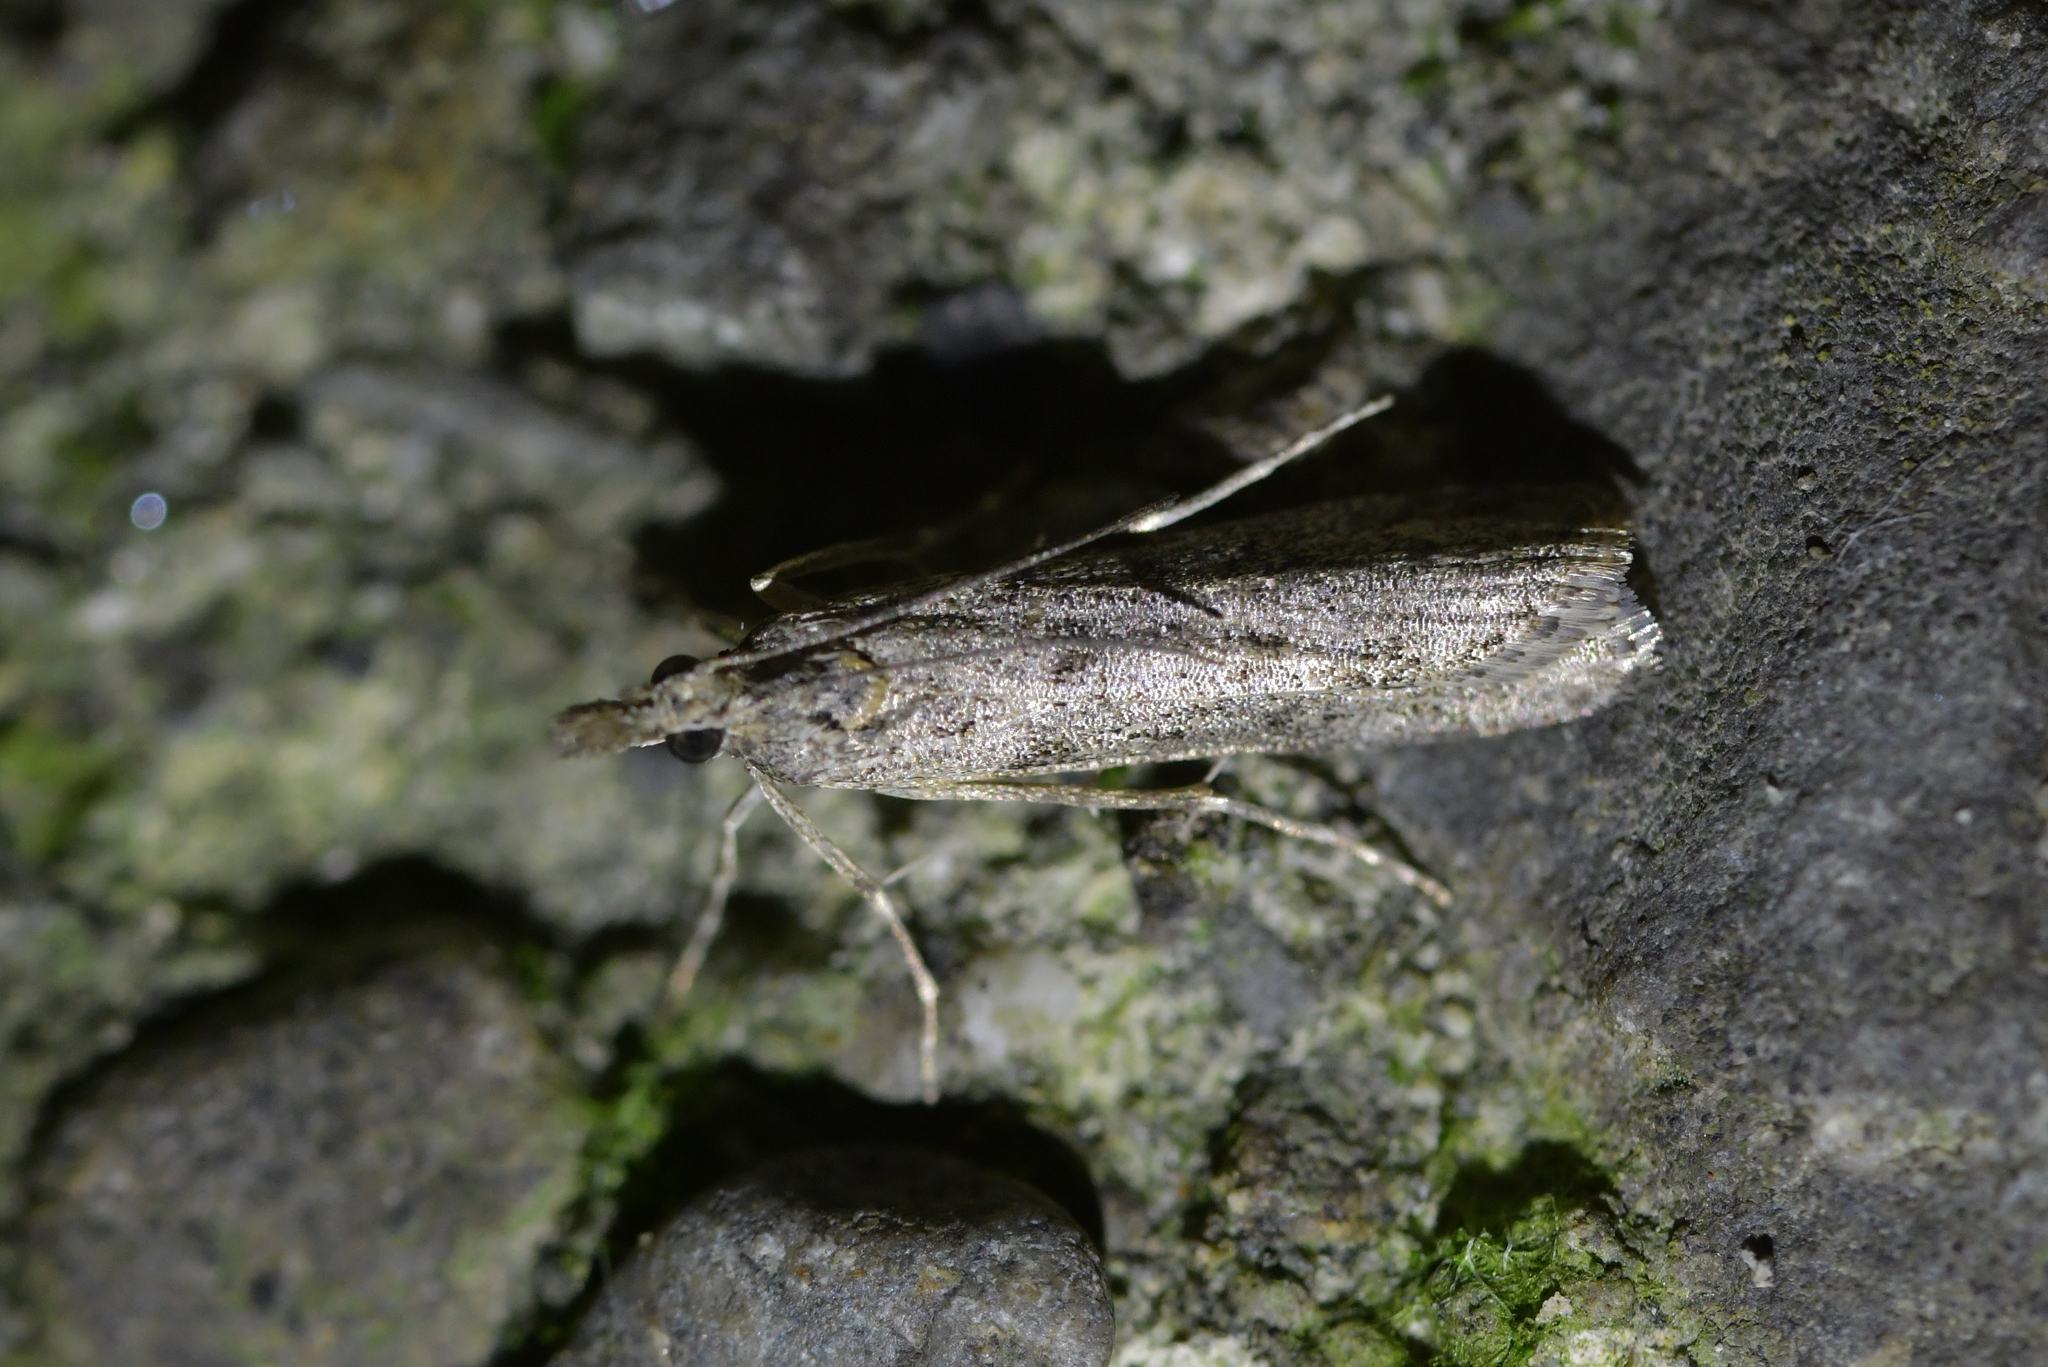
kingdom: Animalia
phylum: Arthropoda
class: Insecta
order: Lepidoptera
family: Crambidae
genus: Eudonia
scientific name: Eudonia leptalea
